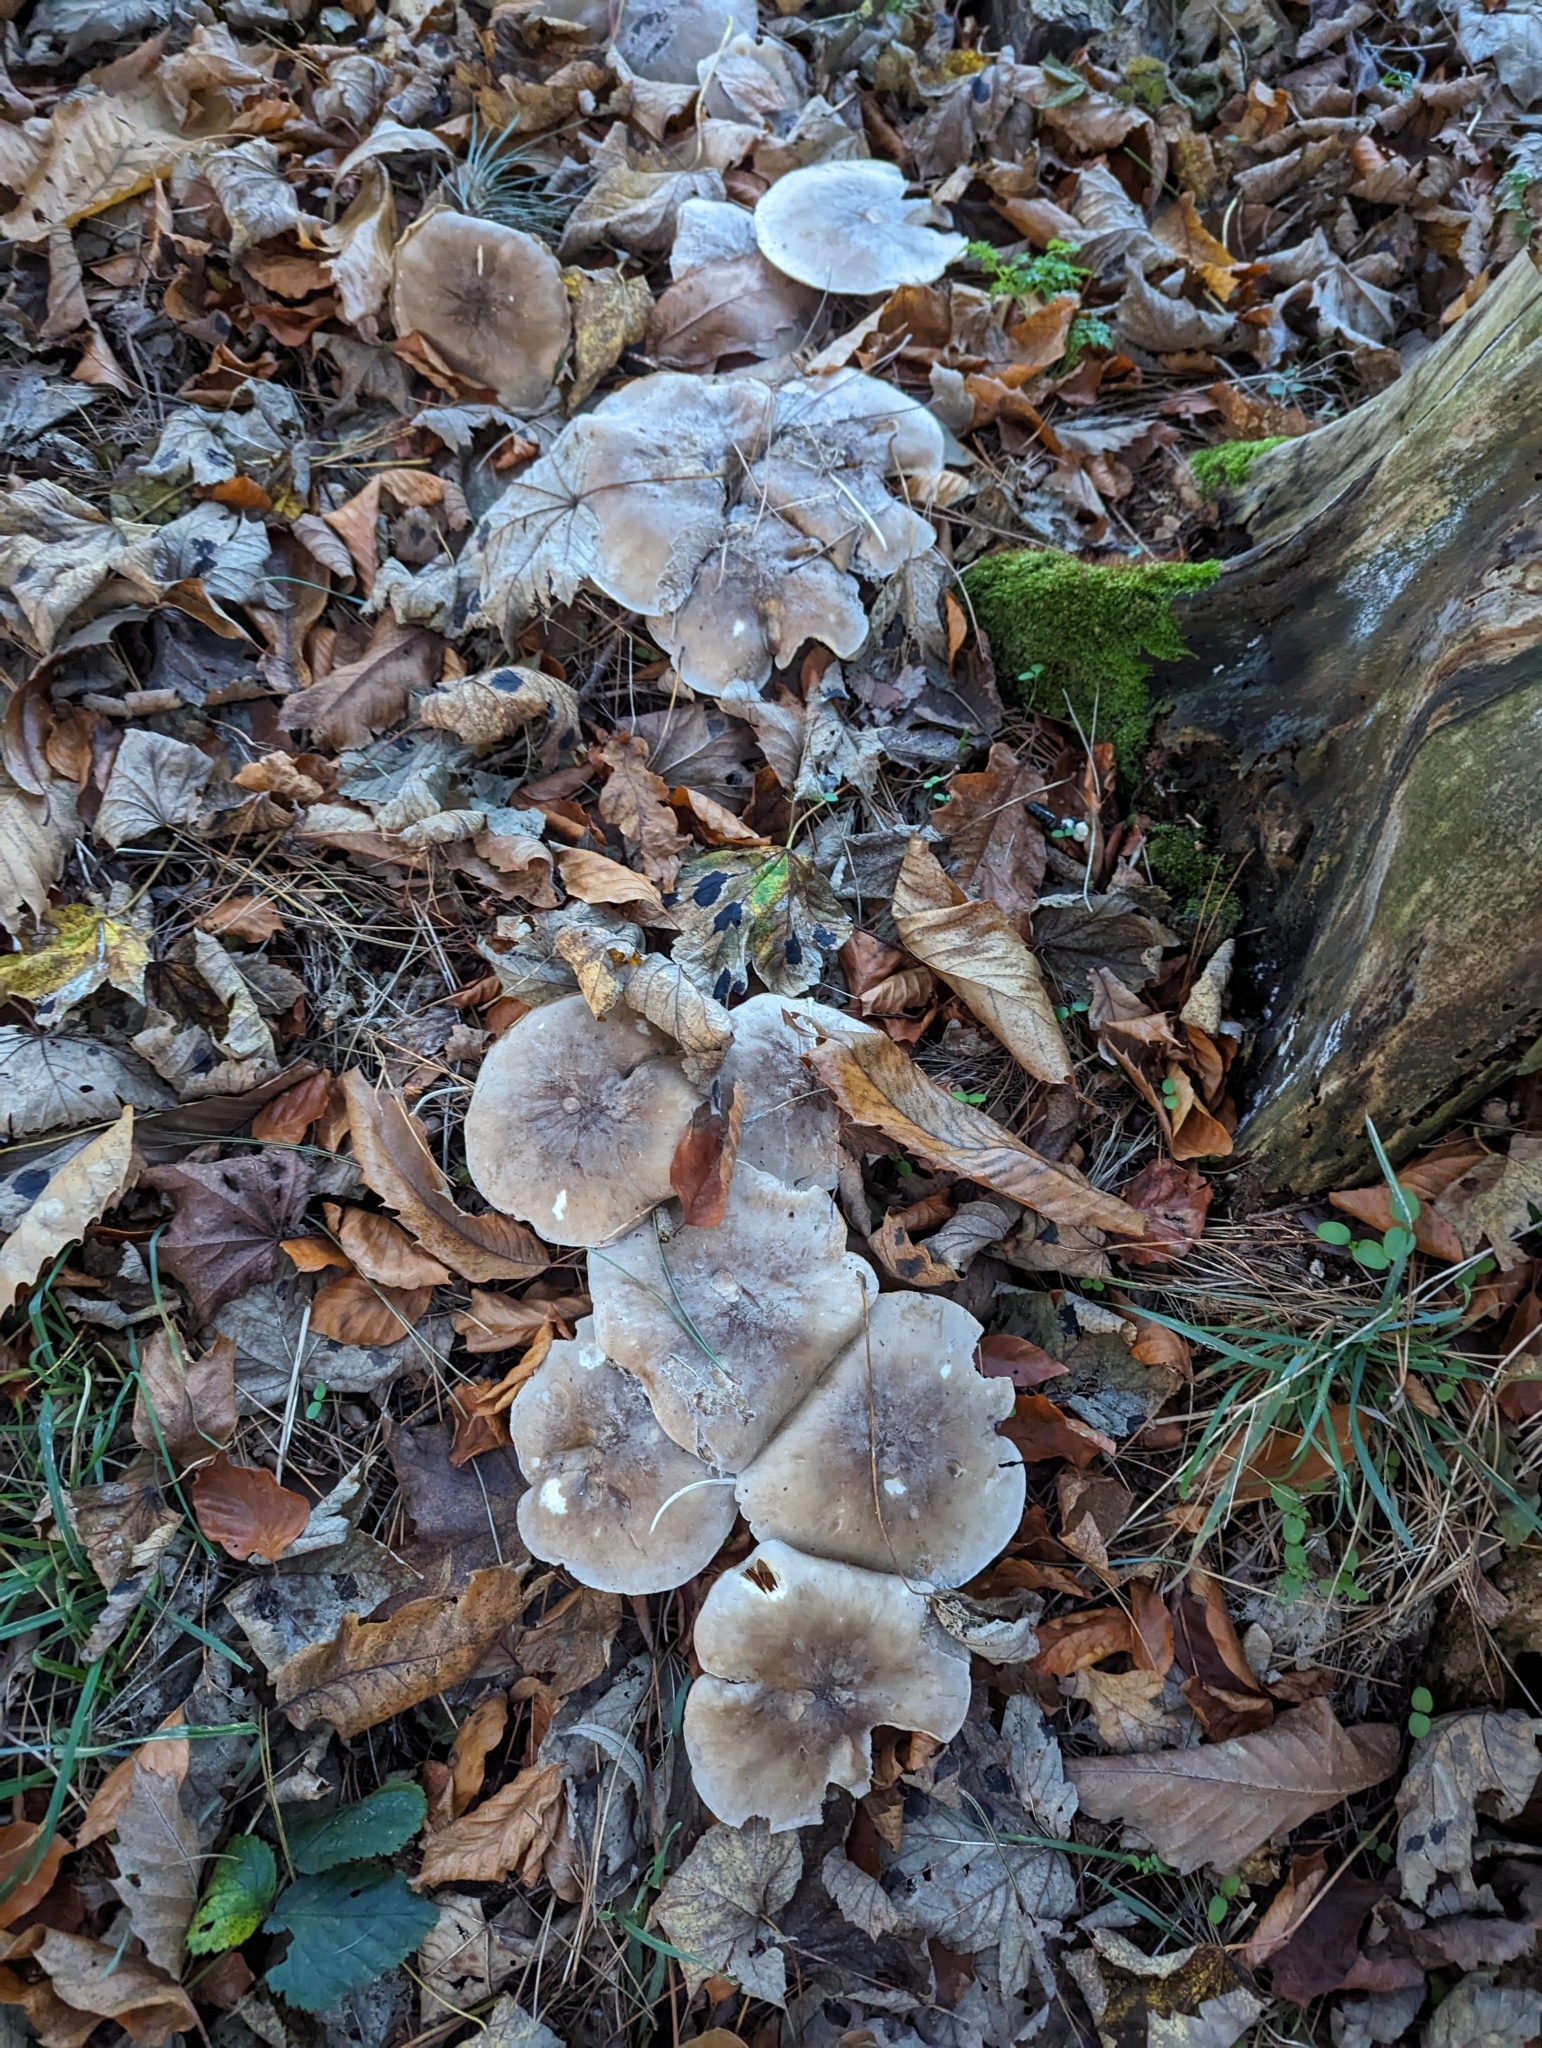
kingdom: Fungi
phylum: Basidiomycota
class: Agaricomycetes
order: Agaricales
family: Tricholomataceae
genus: Clitocybe
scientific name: Clitocybe nebularis
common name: Clouded agaric
